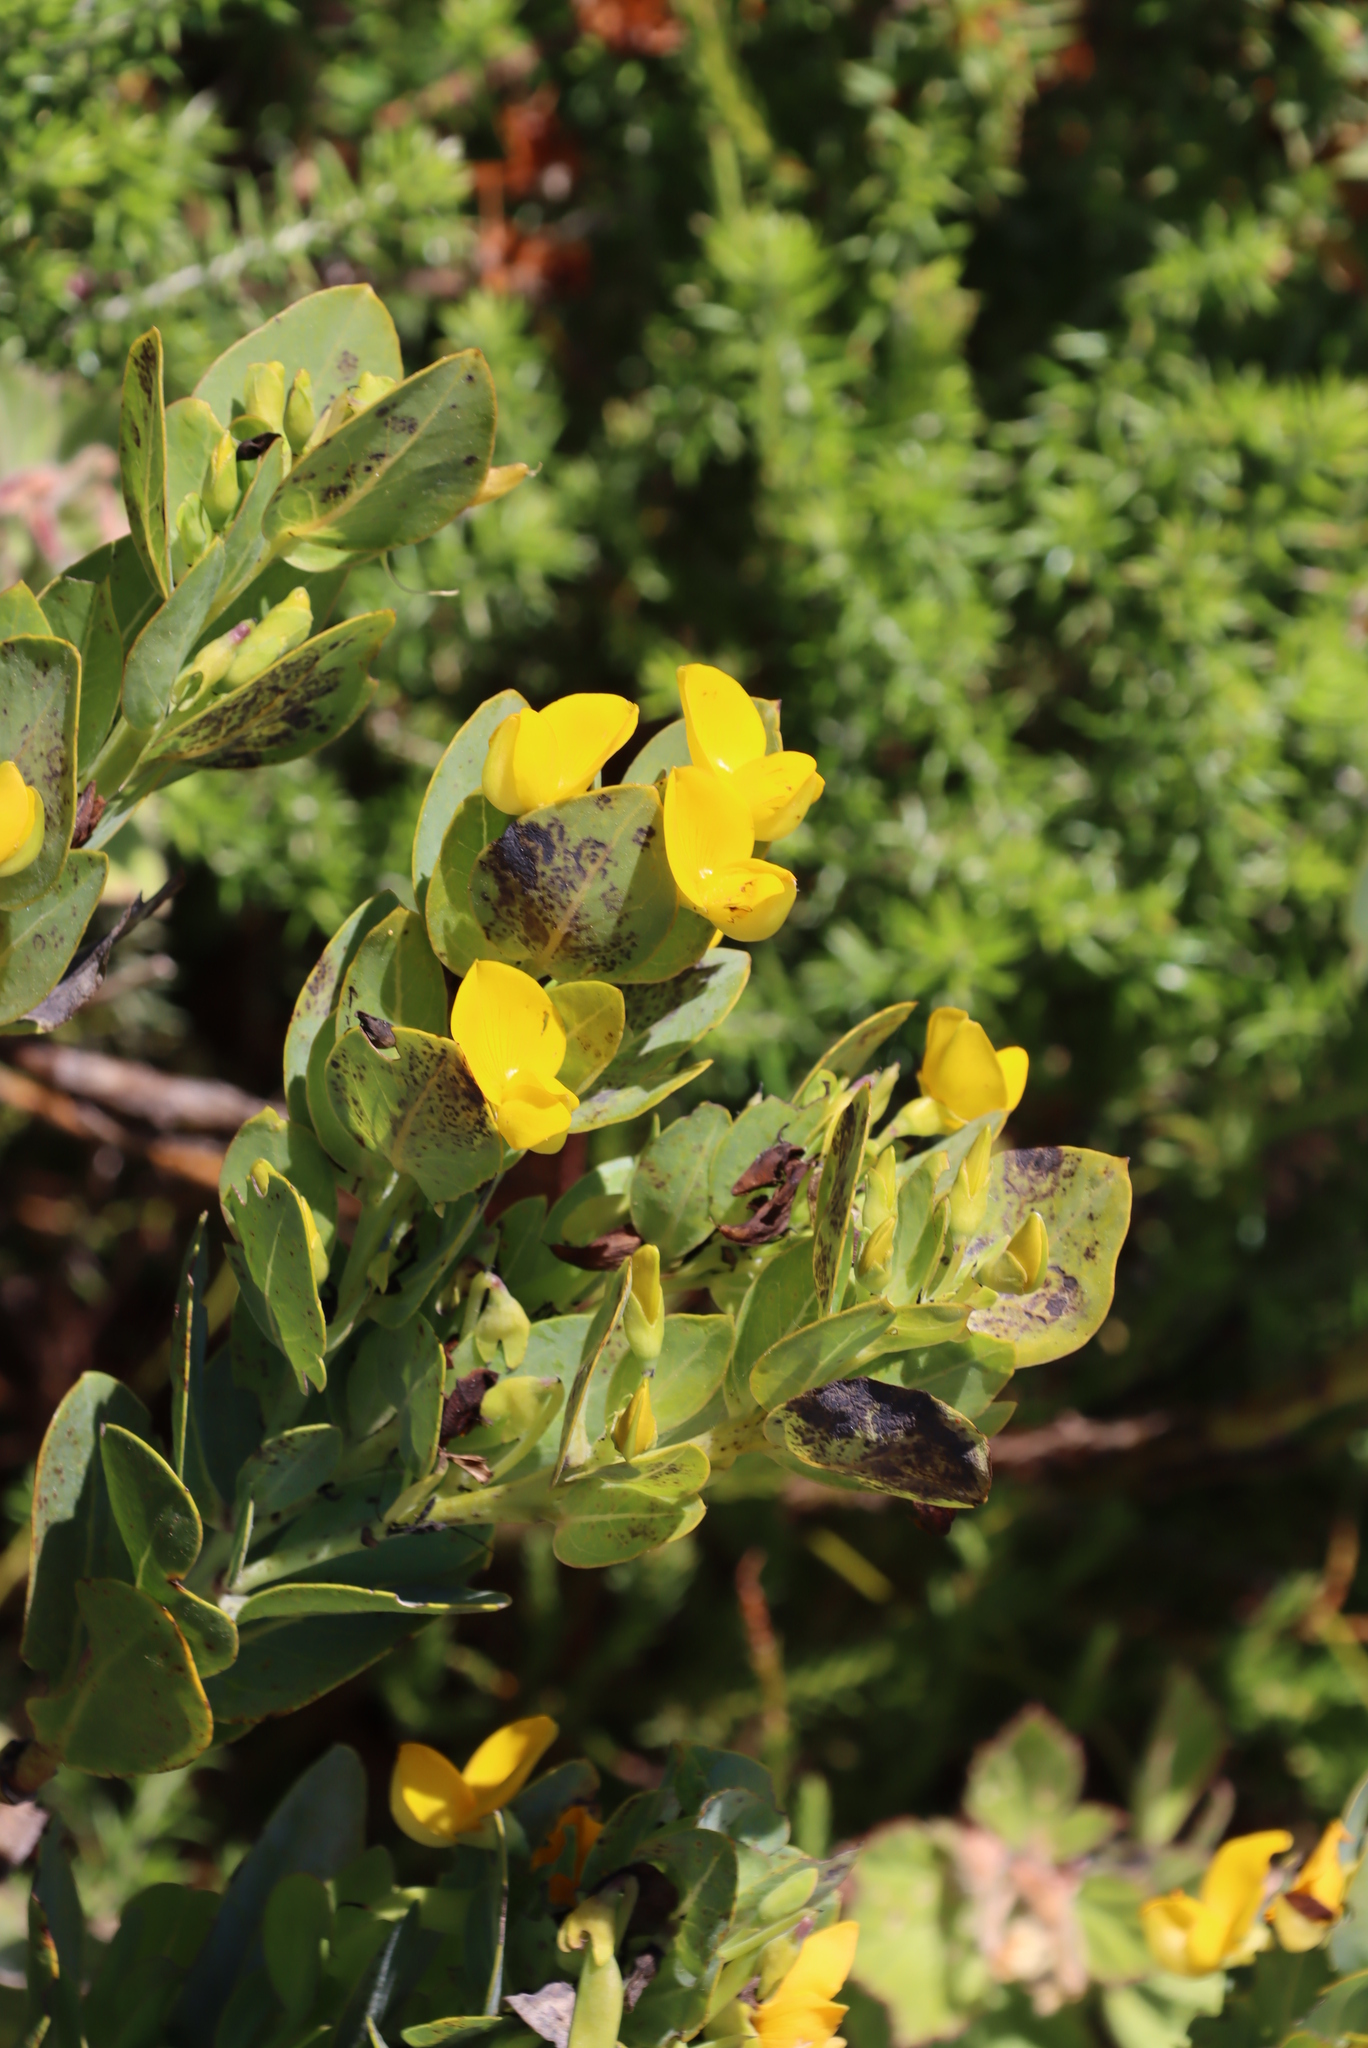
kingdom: Plantae
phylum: Tracheophyta
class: Magnoliopsida
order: Fabales
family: Fabaceae
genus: Rafnia
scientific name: Rafnia triflora
